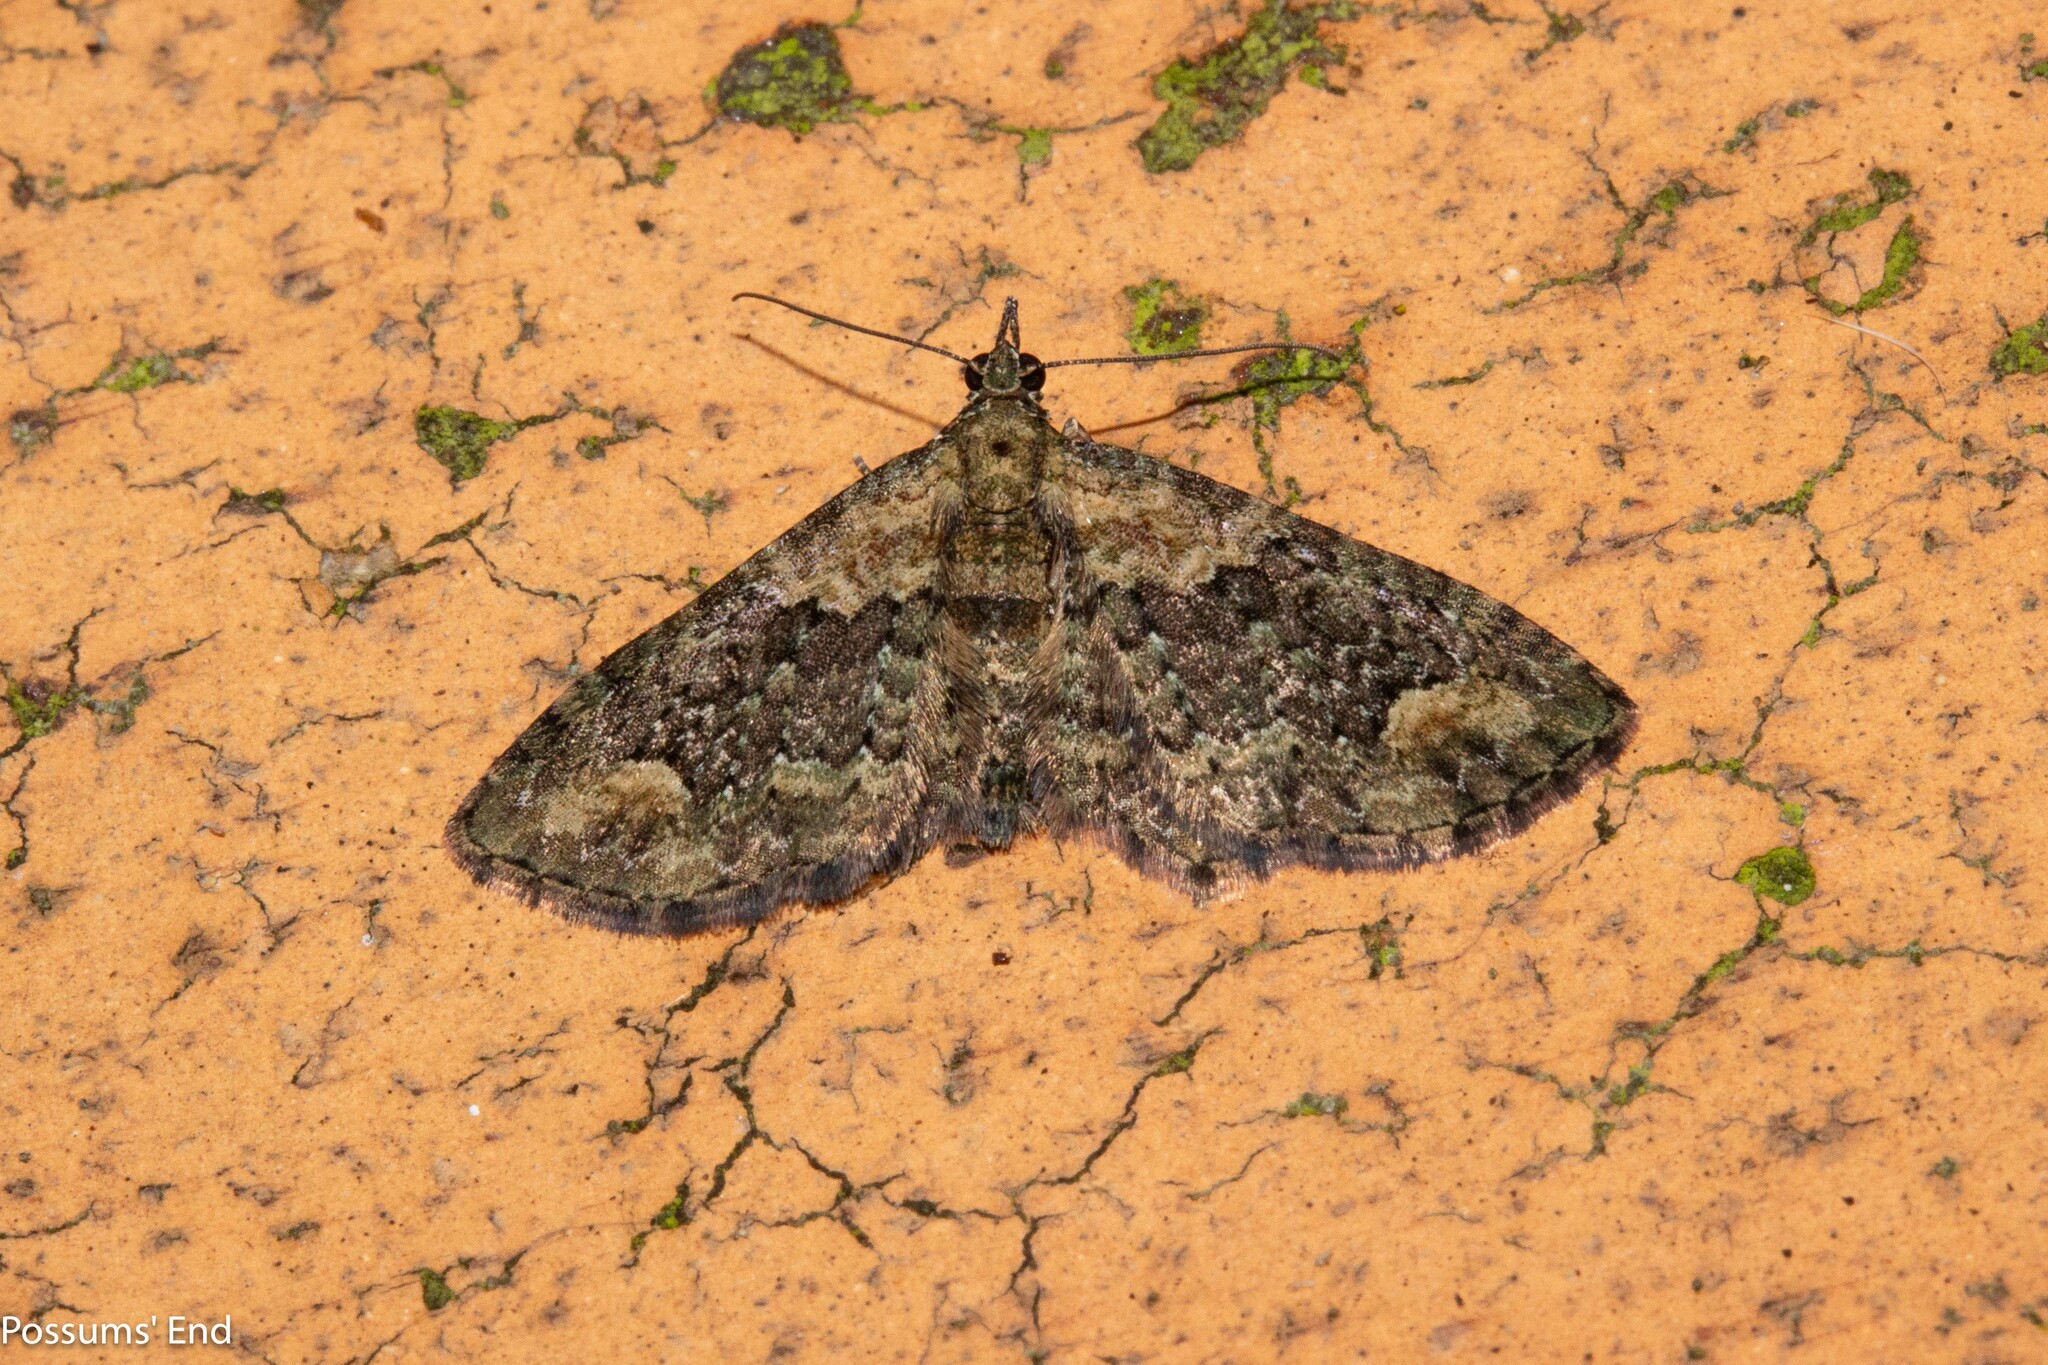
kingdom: Animalia
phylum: Arthropoda
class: Insecta
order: Lepidoptera
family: Geometridae
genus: Pasiphilodes
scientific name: Pasiphilodes testulata
